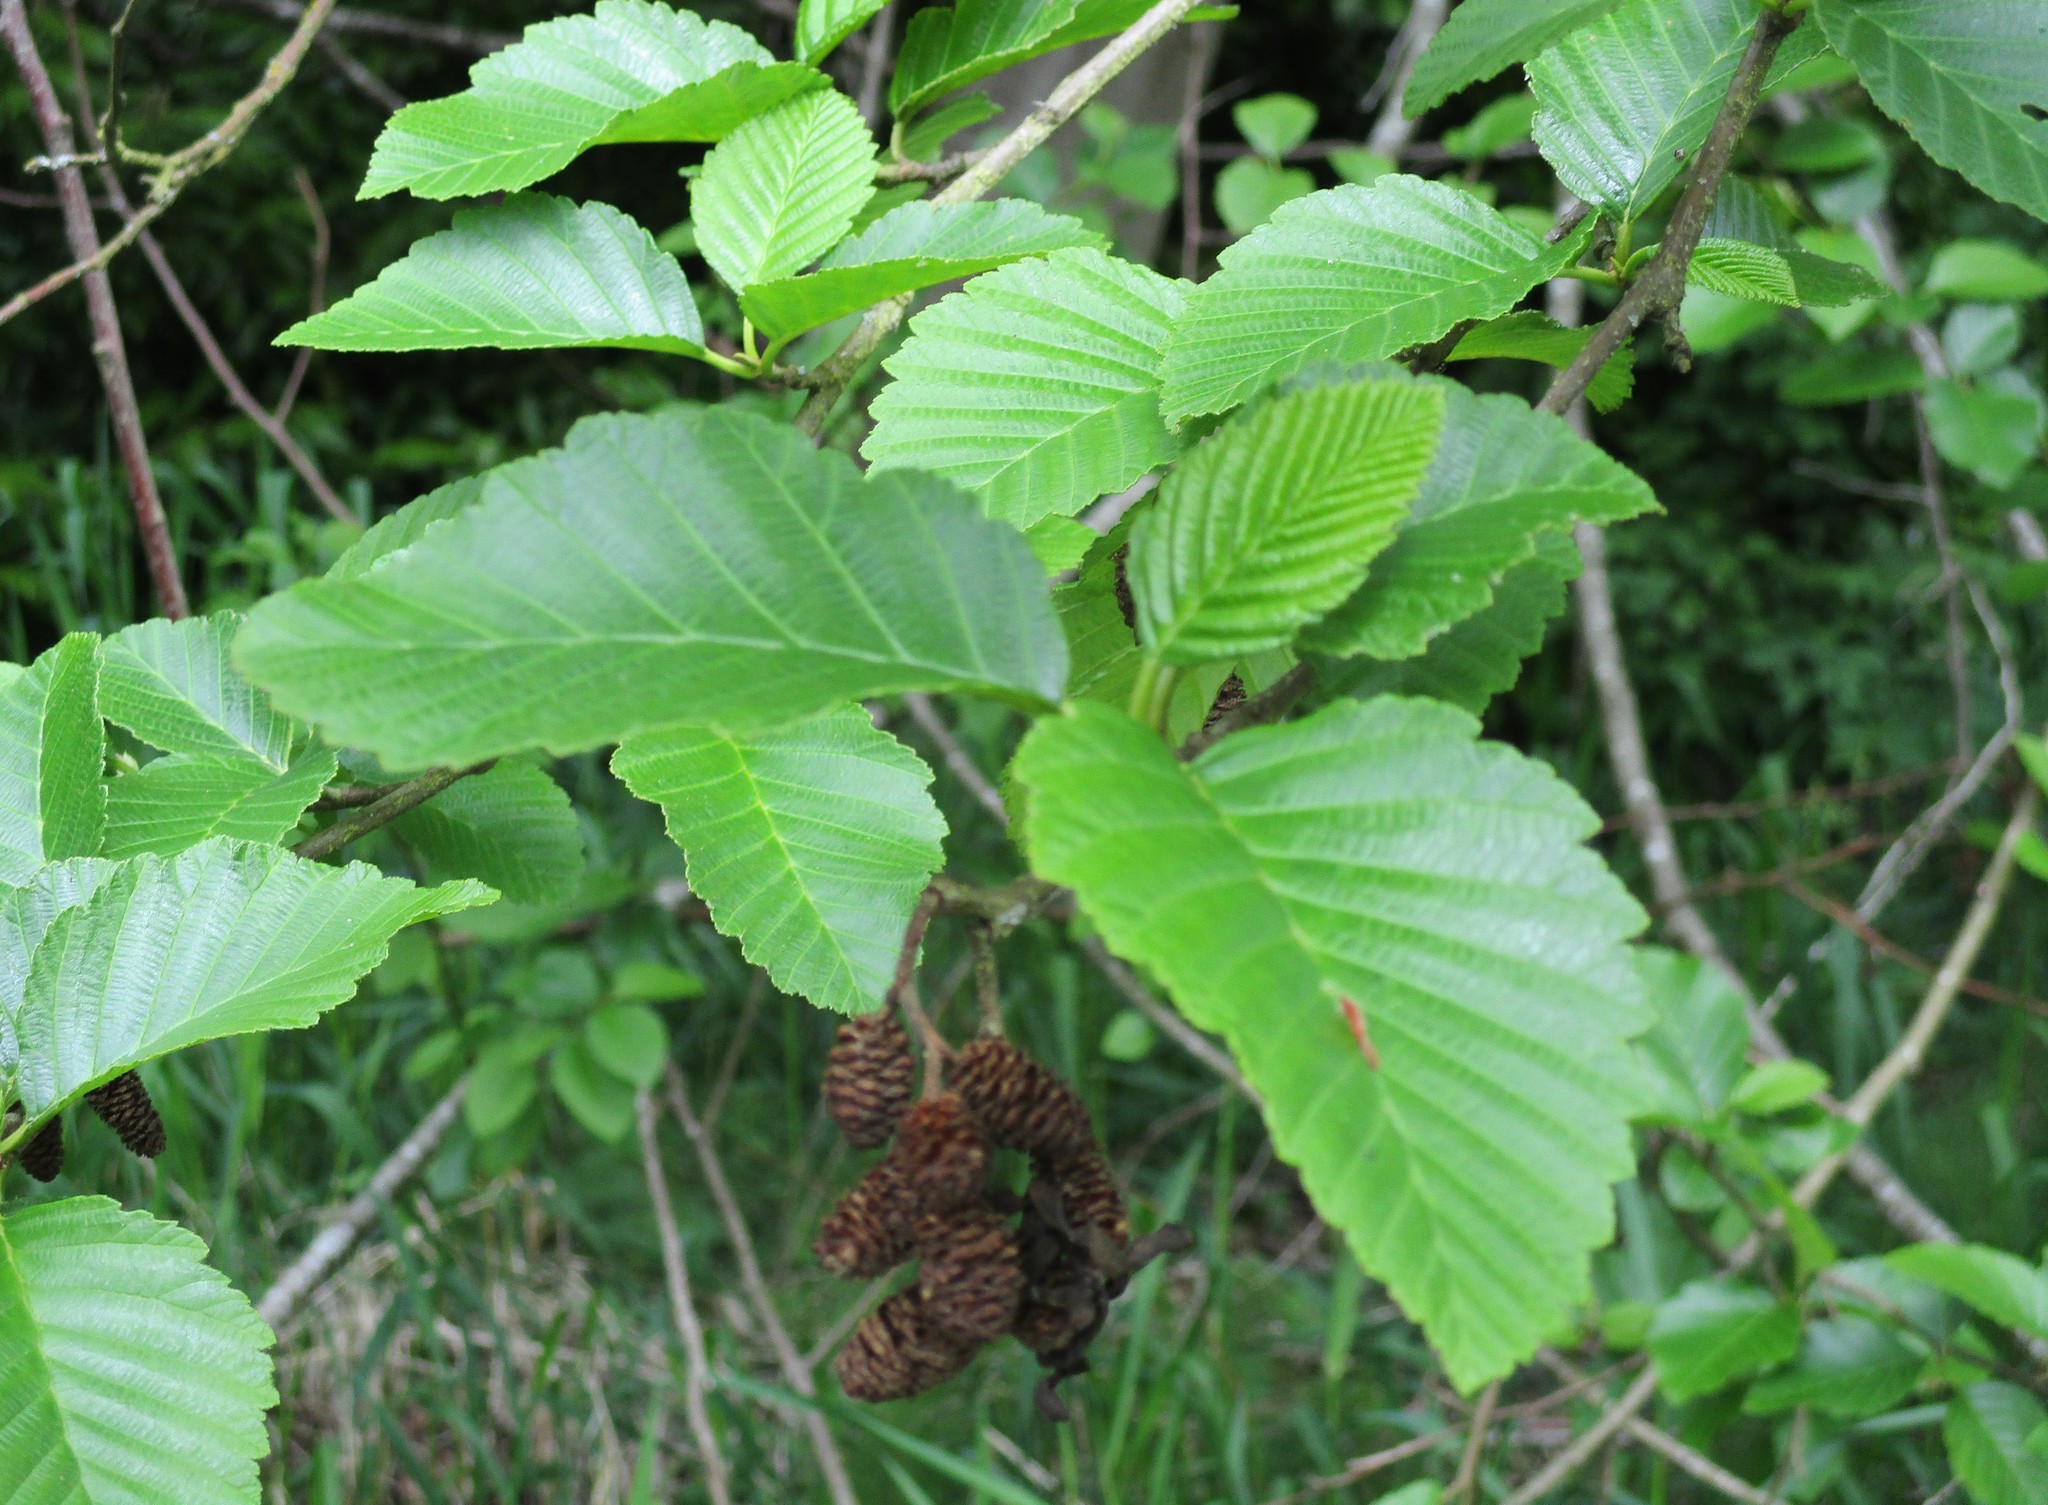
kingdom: Plantae
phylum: Tracheophyta
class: Magnoliopsida
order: Fagales
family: Betulaceae
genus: Alnus
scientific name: Alnus rubra
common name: Red alder
